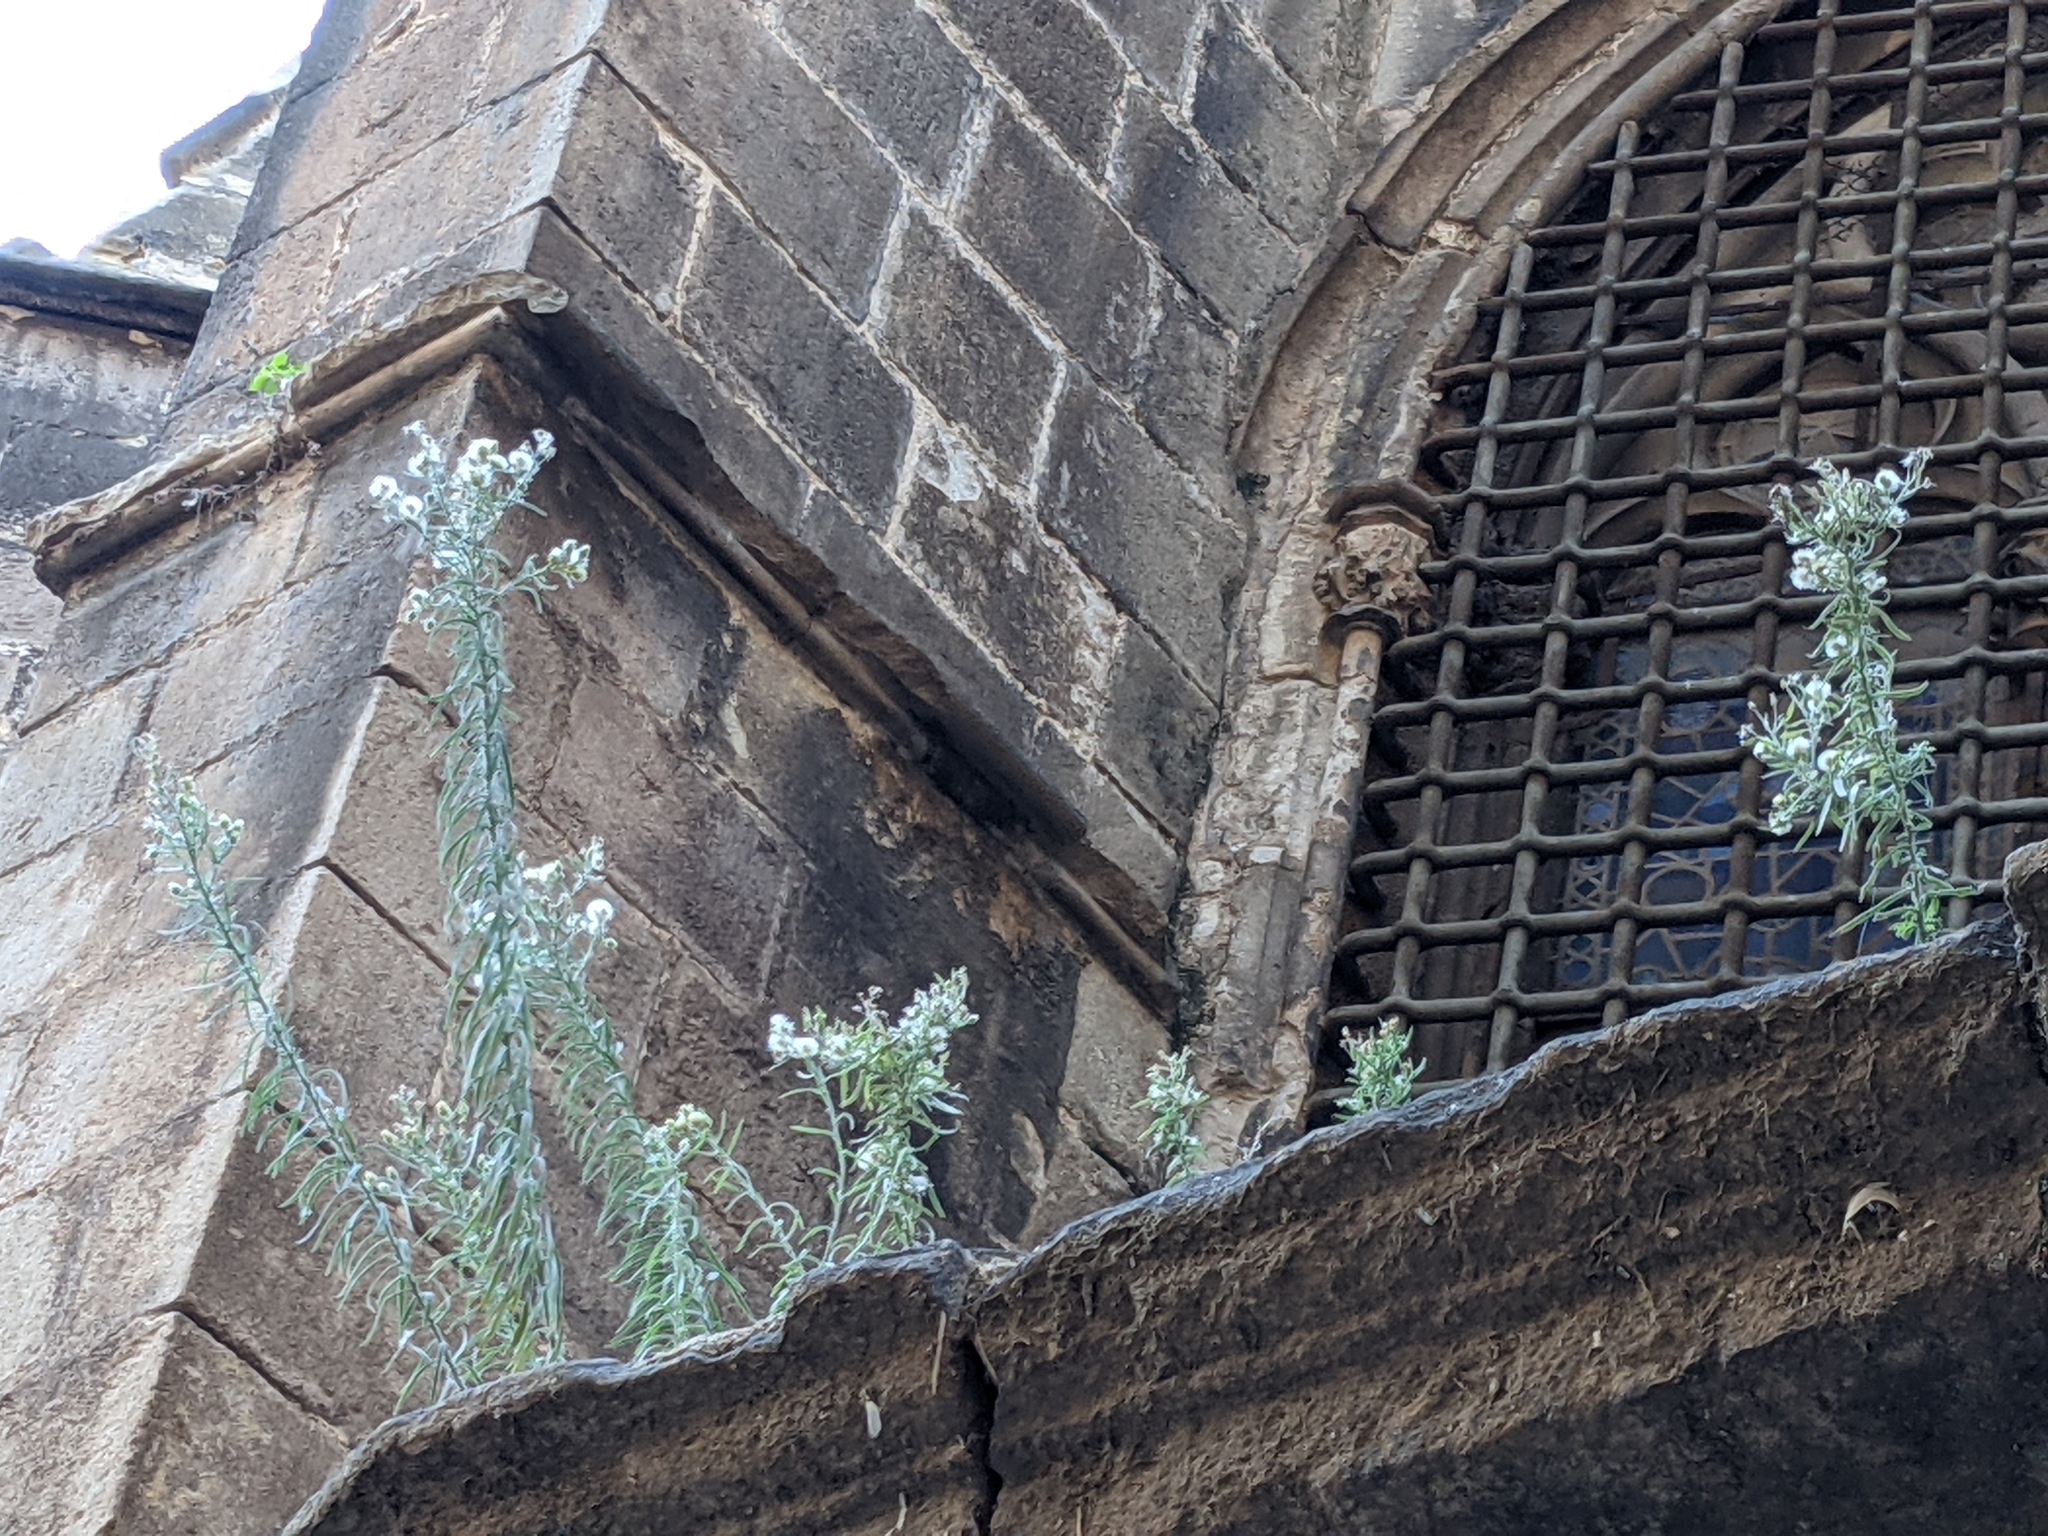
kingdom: Plantae
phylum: Tracheophyta
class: Magnoliopsida
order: Asterales
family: Asteraceae
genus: Erigeron
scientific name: Erigeron
